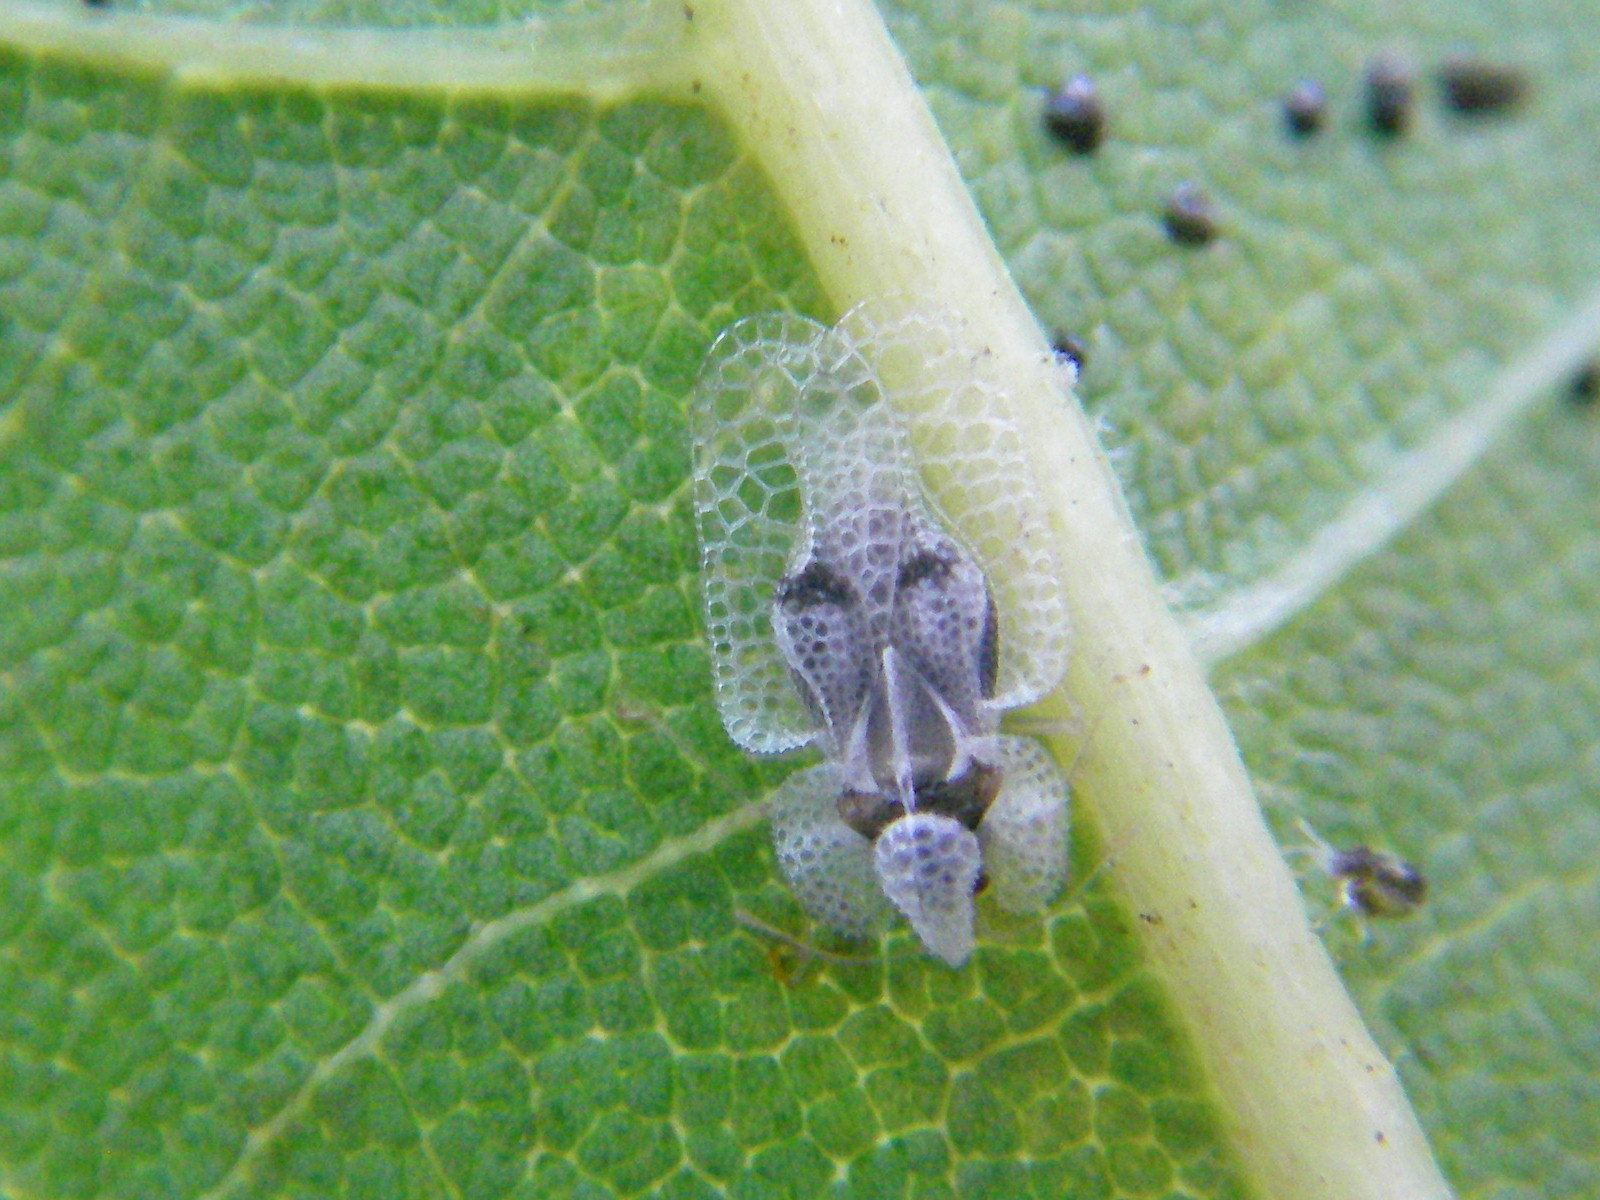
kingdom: Animalia
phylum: Arthropoda
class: Insecta
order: Hemiptera
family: Tingidae
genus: Corythucha
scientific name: Corythucha ciliata
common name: Sycamore lace bug
